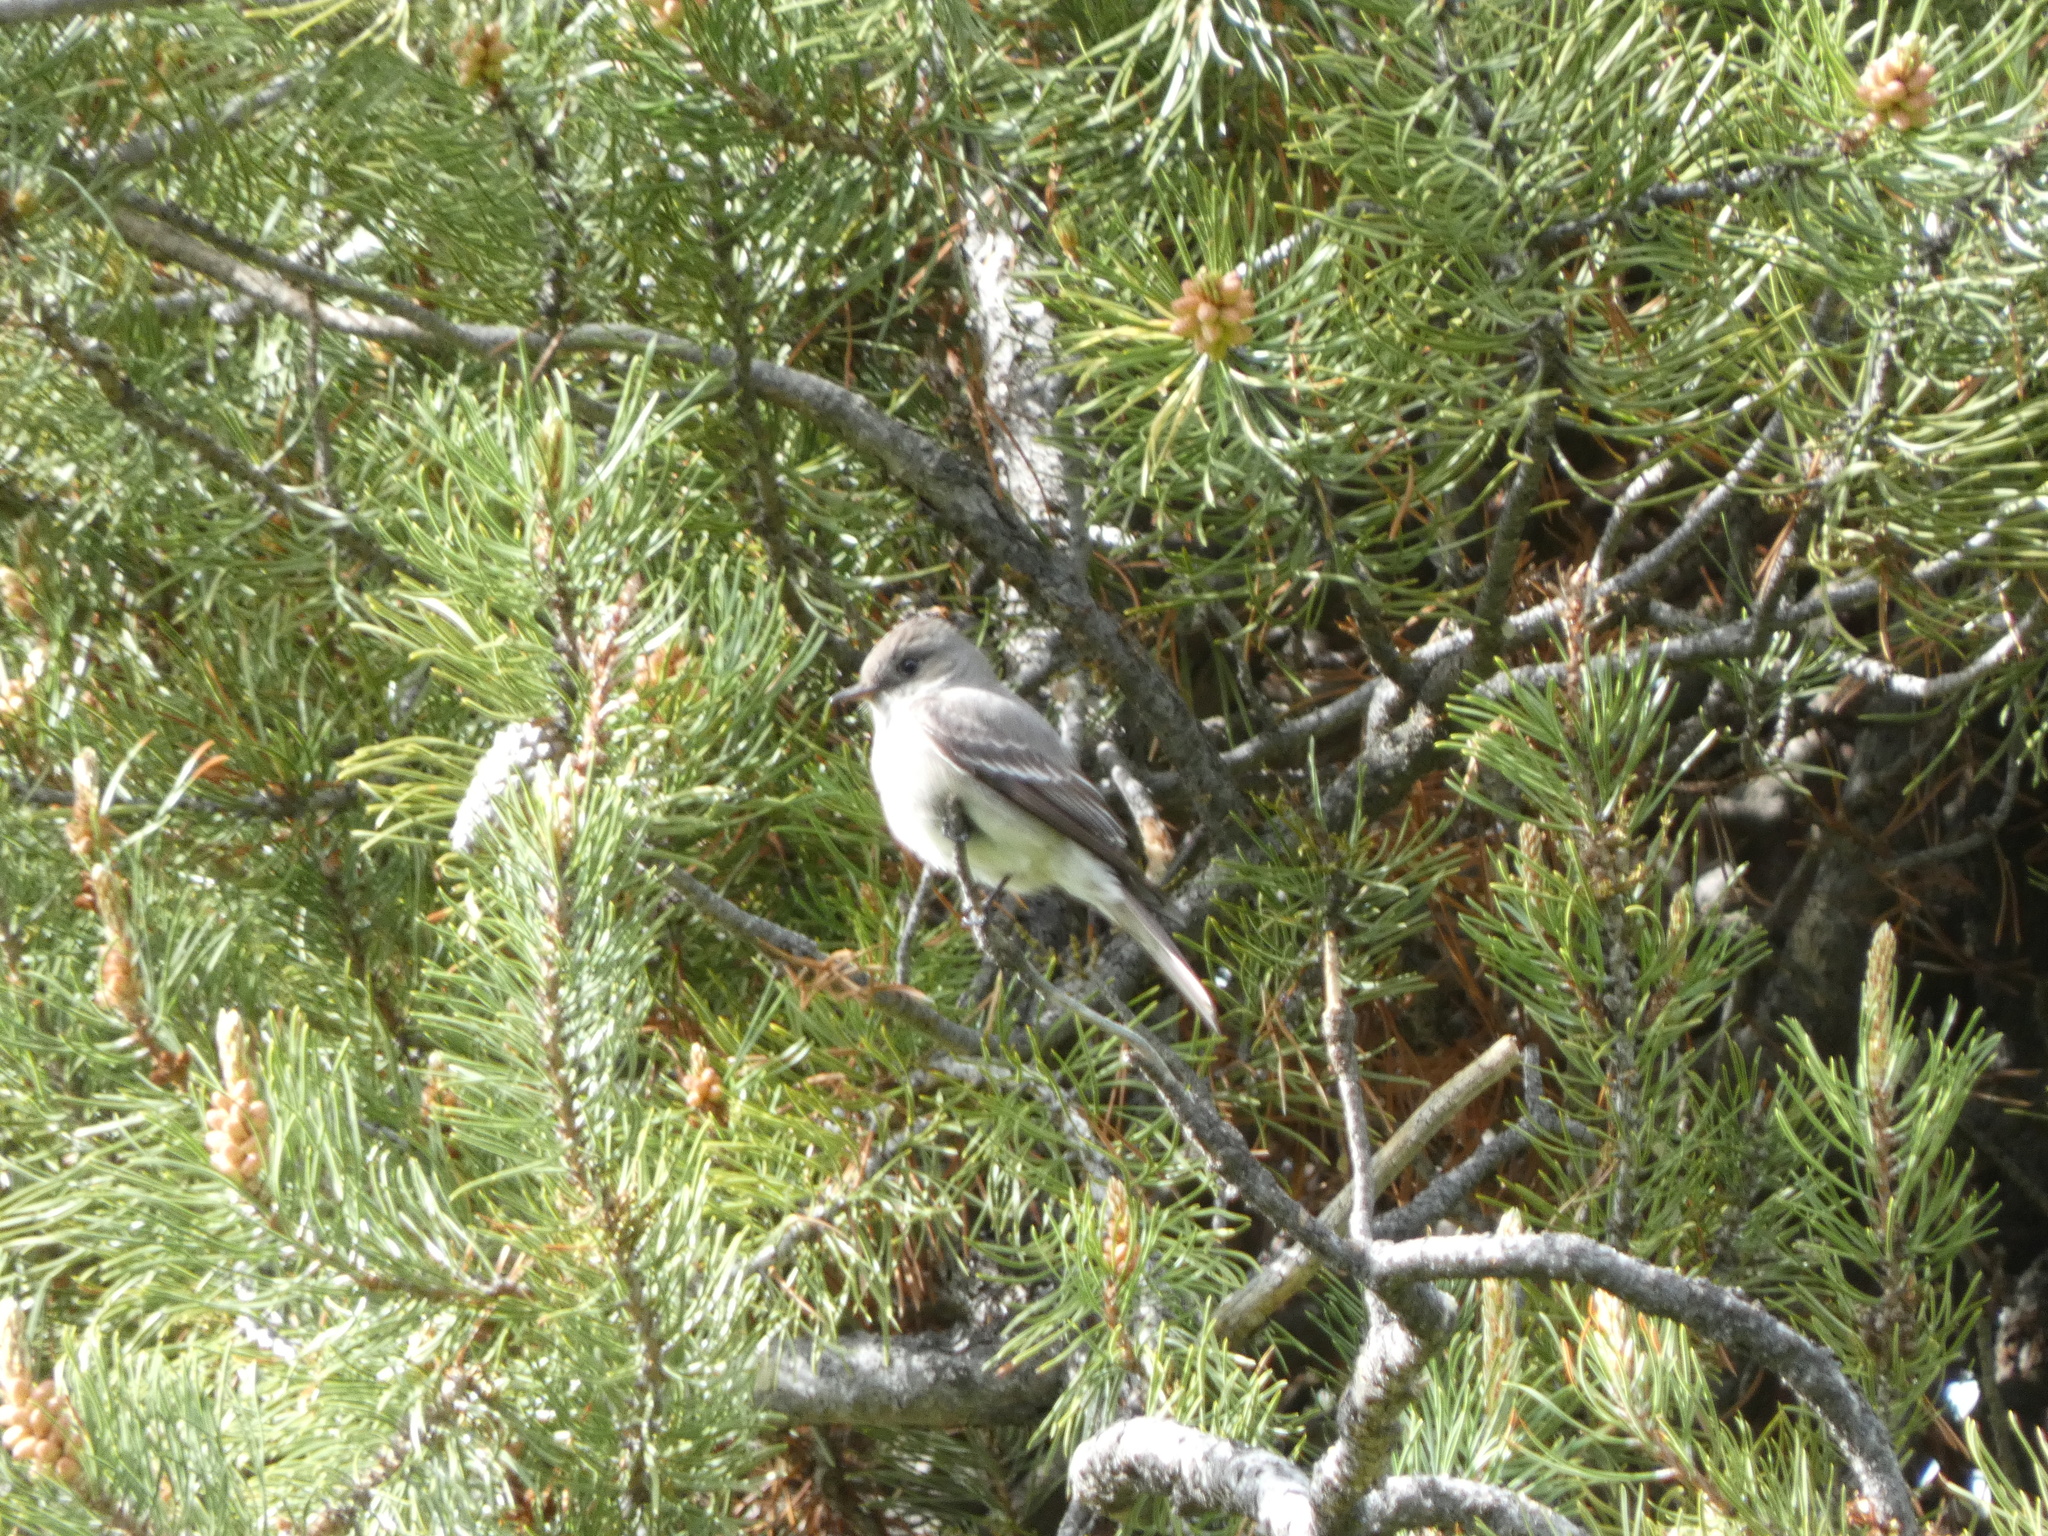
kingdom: Animalia
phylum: Chordata
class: Aves
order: Passeriformes
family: Tyrannidae
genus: Contopus
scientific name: Contopus sordidulus
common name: Western wood-pewee
